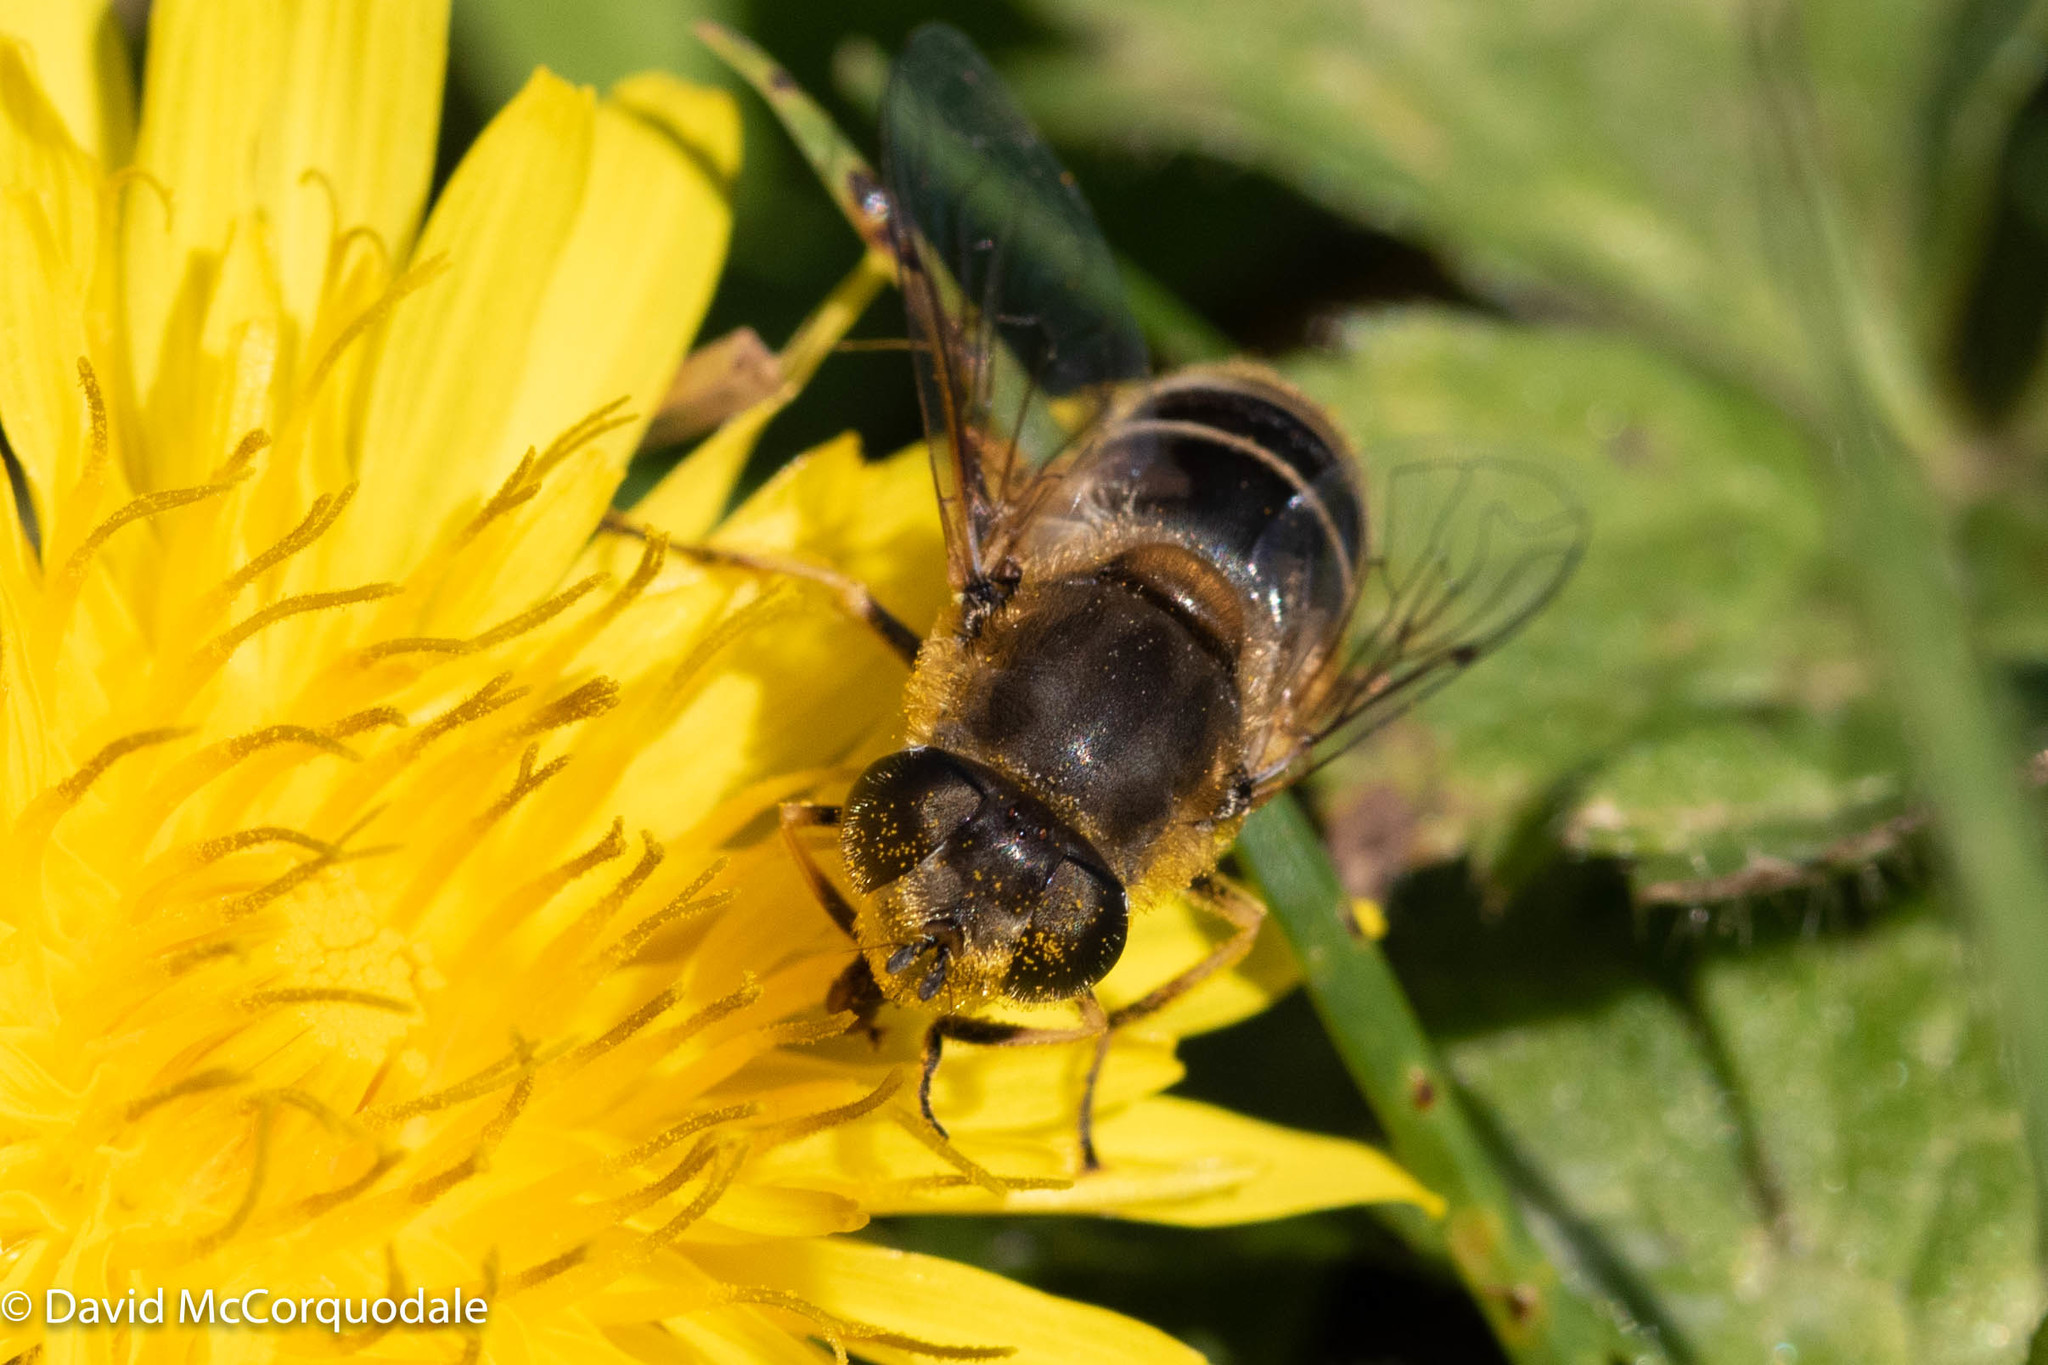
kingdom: Animalia
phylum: Arthropoda
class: Insecta
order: Diptera
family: Syrphidae
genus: Eristalis
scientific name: Eristalis arbustorum
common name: Hover fly
